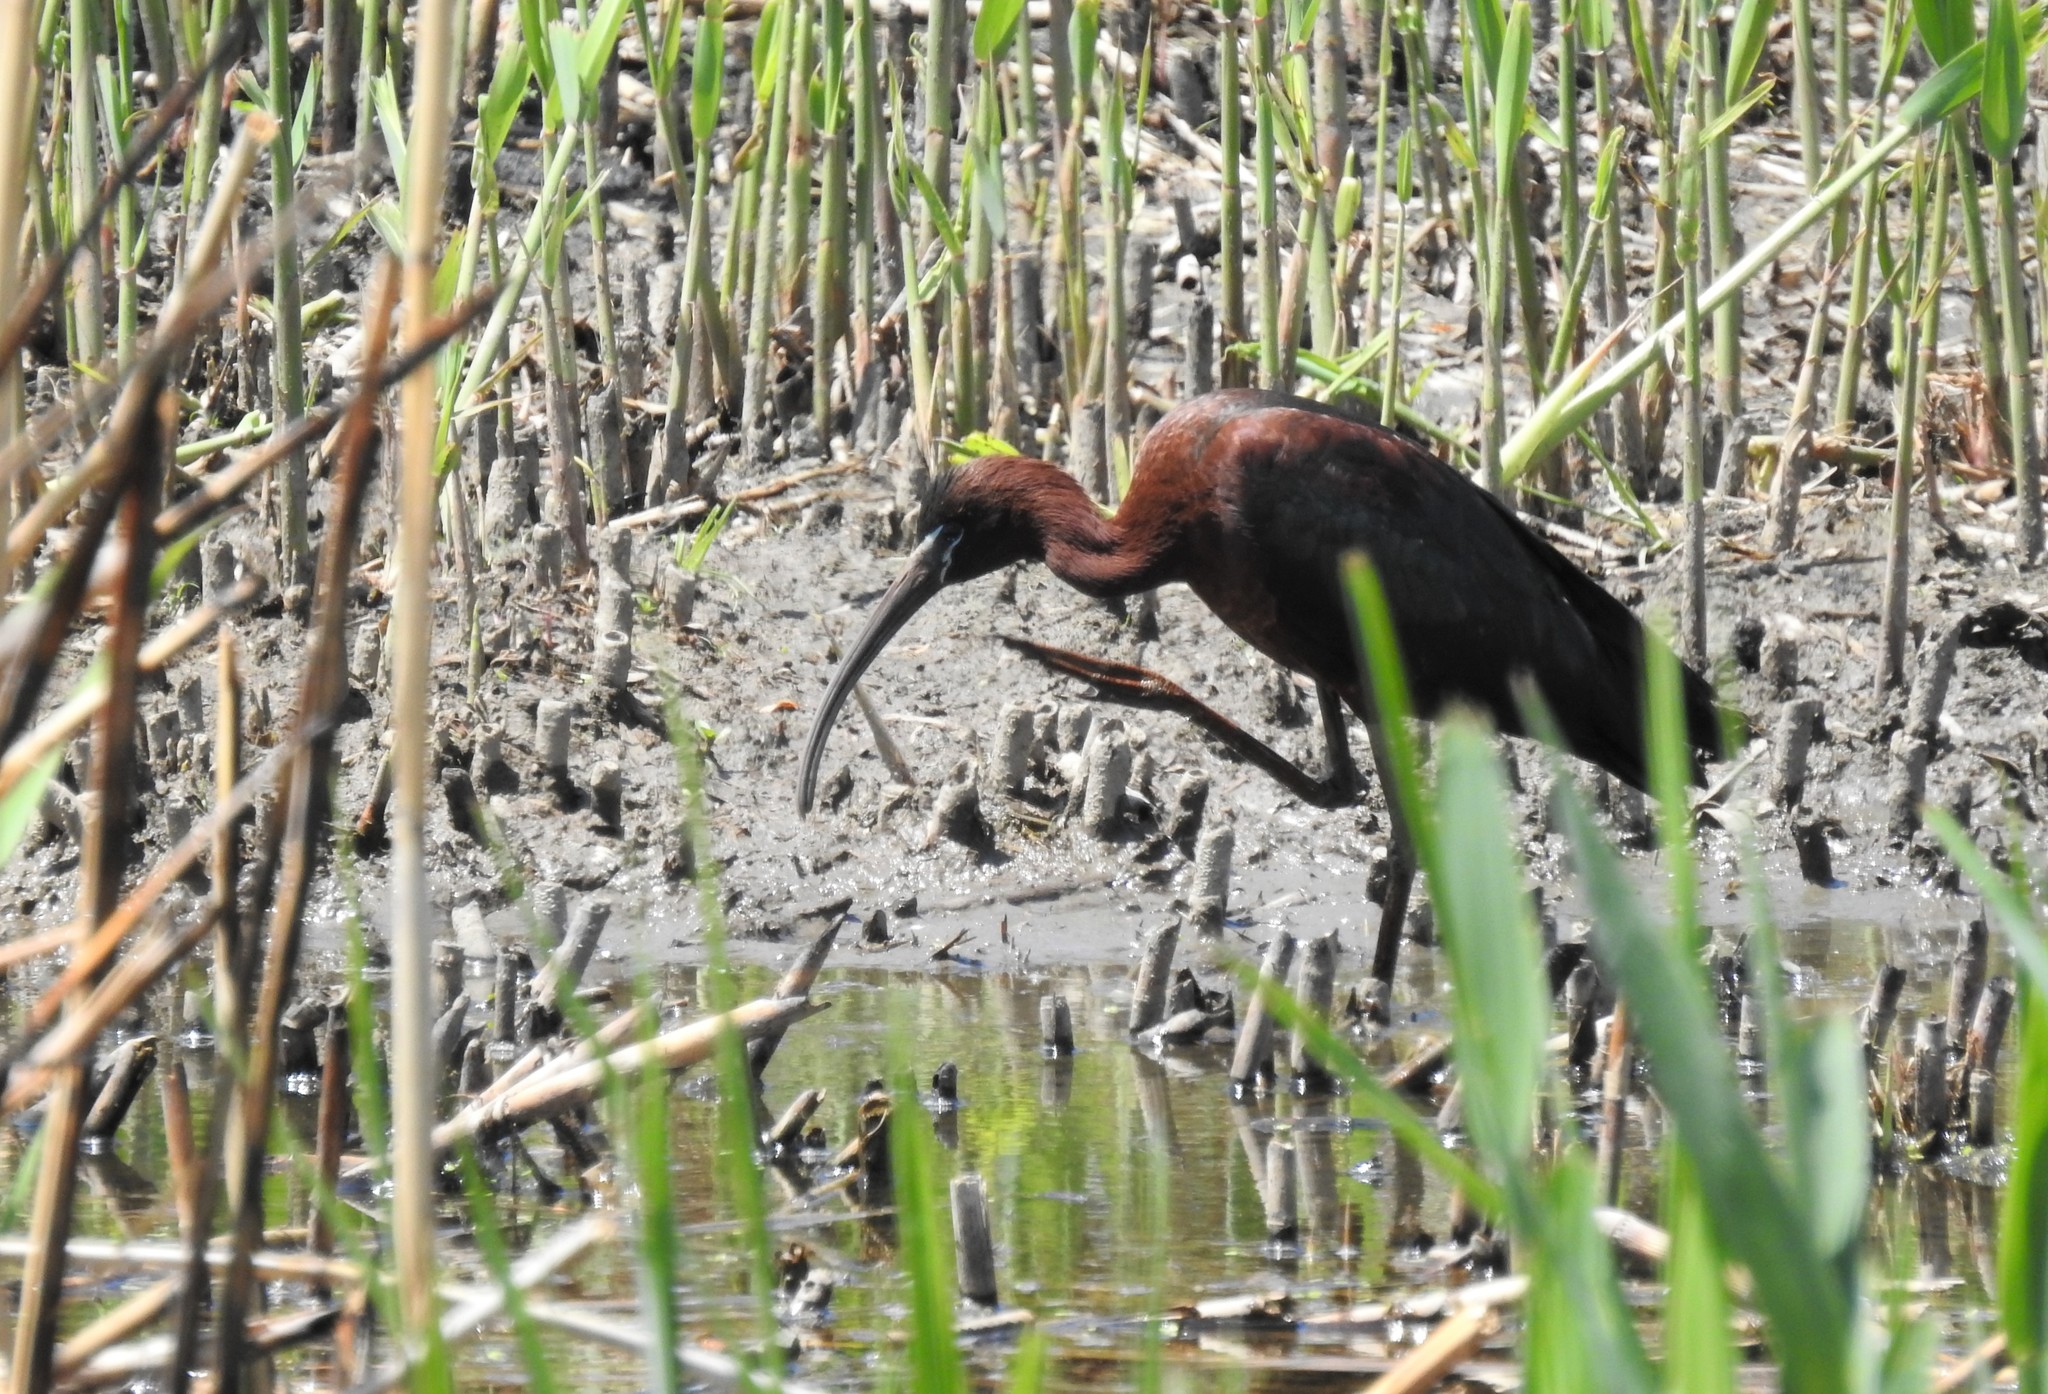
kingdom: Animalia
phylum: Chordata
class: Aves
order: Pelecaniformes
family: Threskiornithidae
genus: Plegadis
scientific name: Plegadis falcinellus
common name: Glossy ibis
